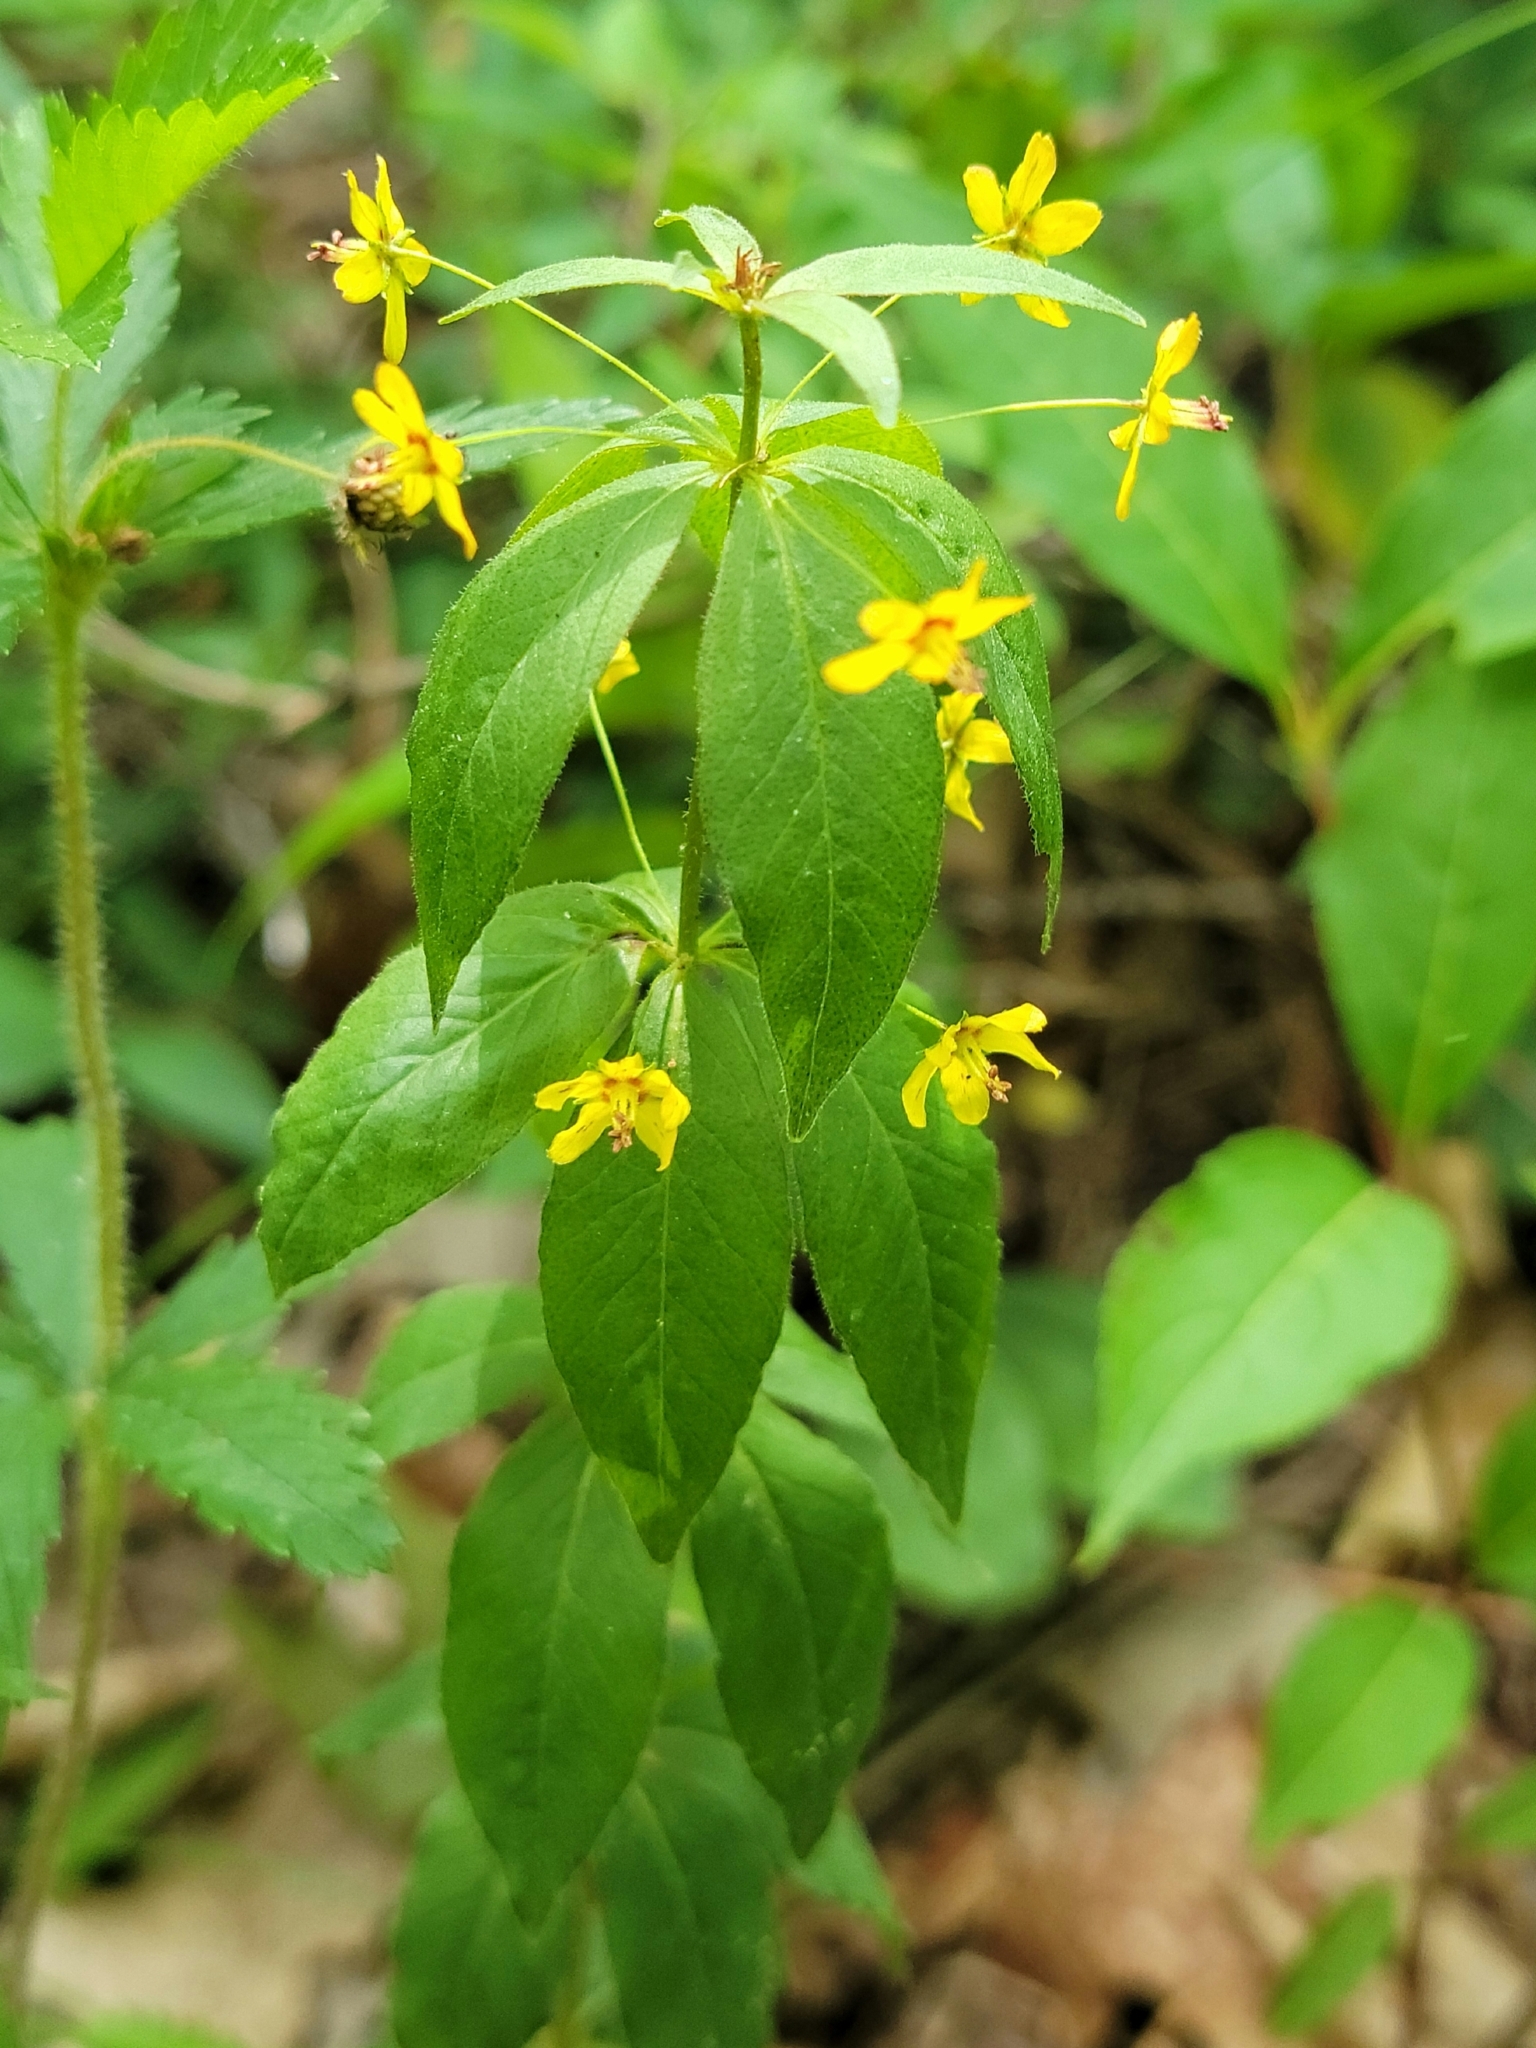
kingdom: Plantae
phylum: Tracheophyta
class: Magnoliopsida
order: Ericales
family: Primulaceae
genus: Lysimachia
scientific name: Lysimachia quadrifolia
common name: Whorled loosestrife
